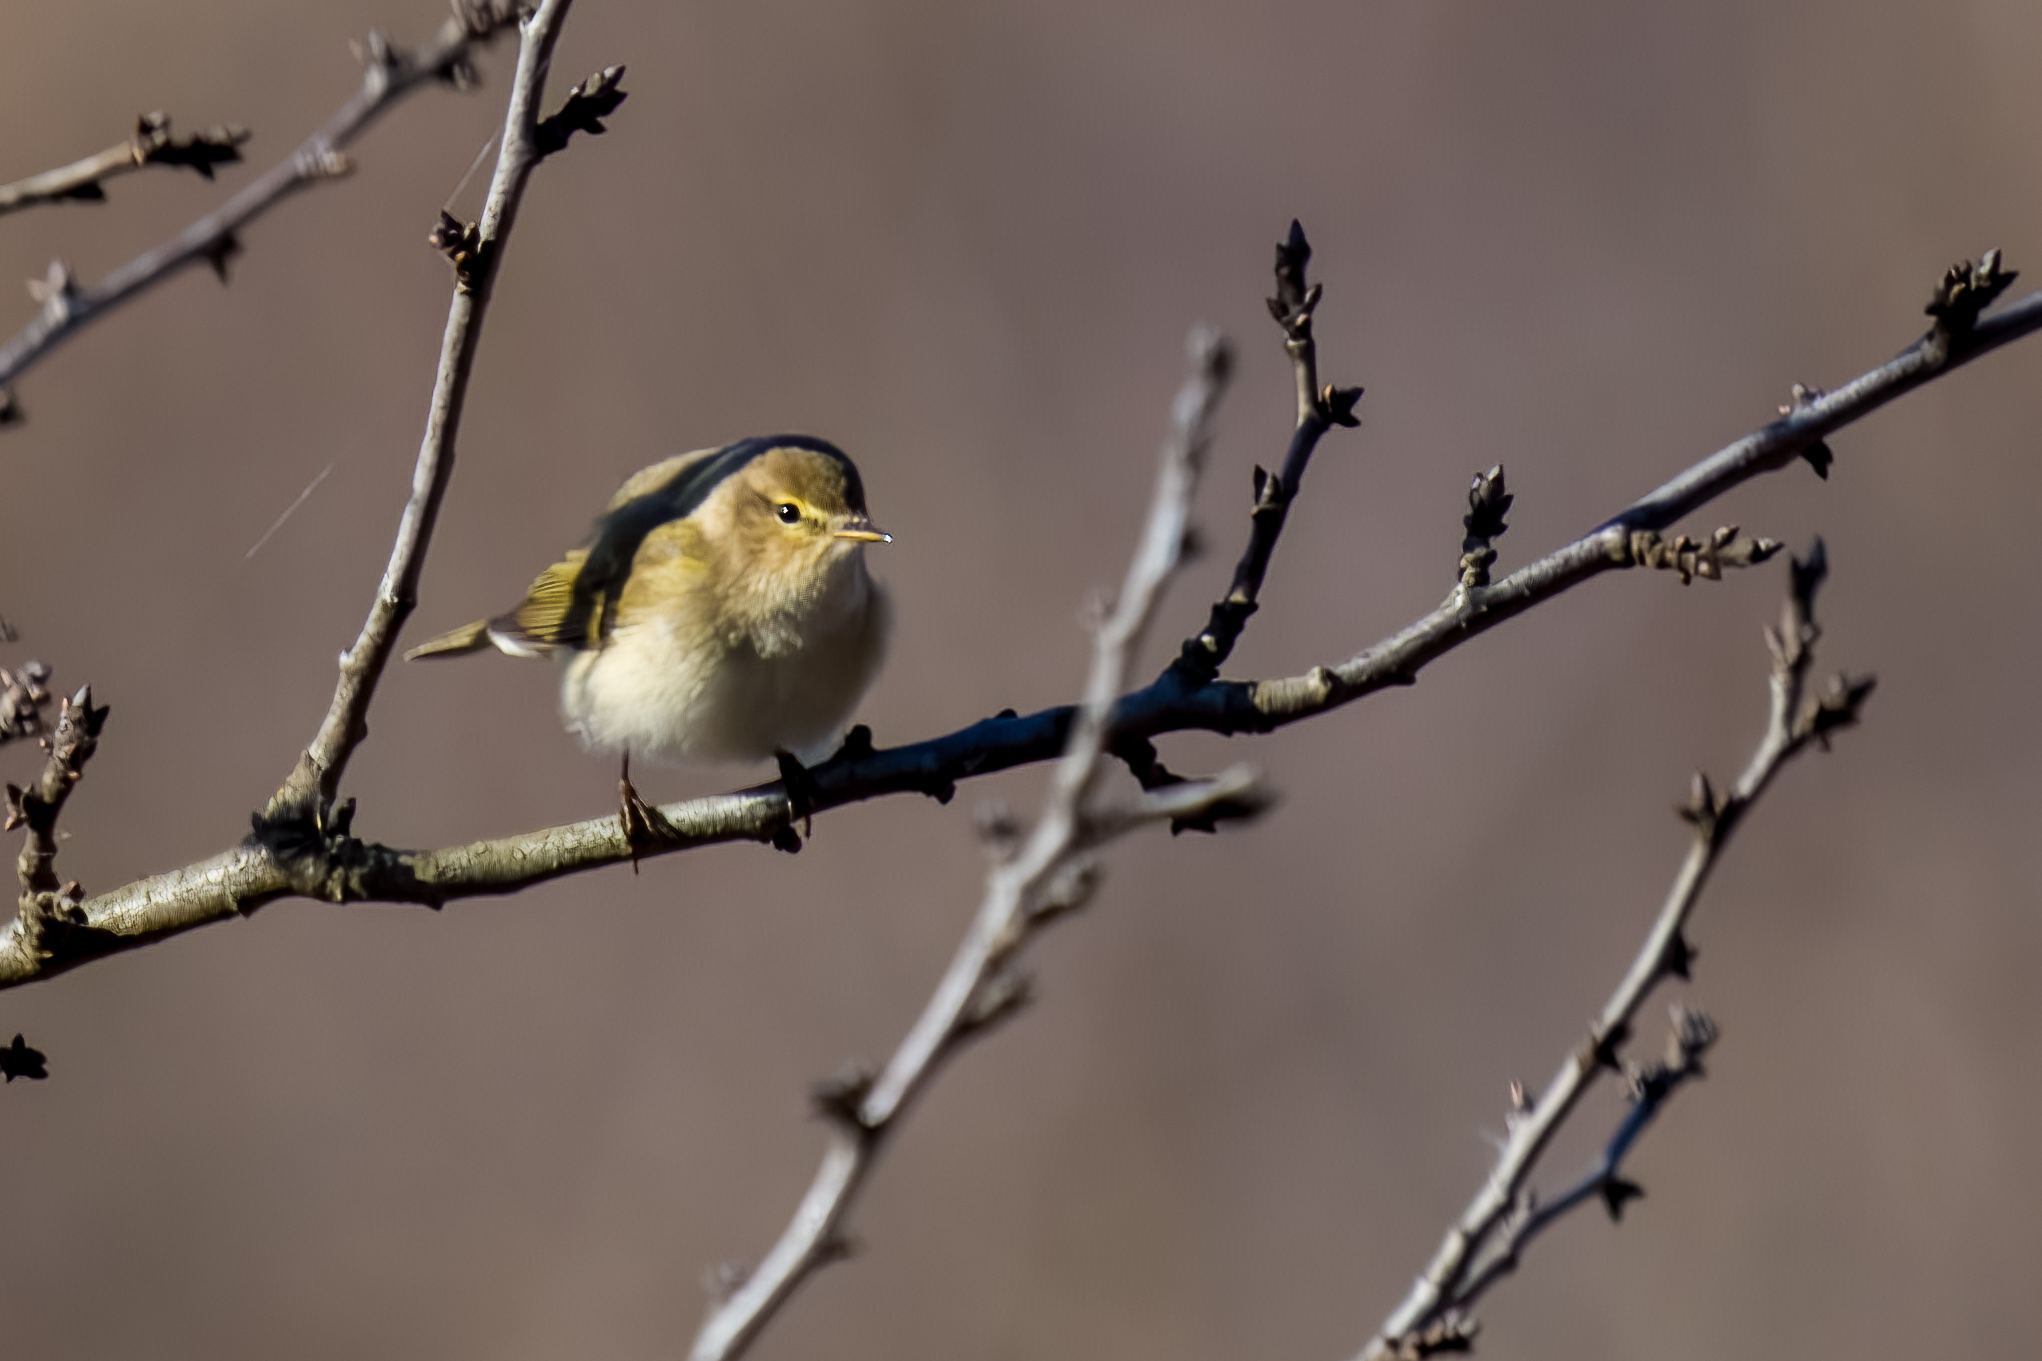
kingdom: Animalia
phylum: Chordata
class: Aves
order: Passeriformes
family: Phylloscopidae
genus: Phylloscopus
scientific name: Phylloscopus collybita
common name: Common chiffchaff
